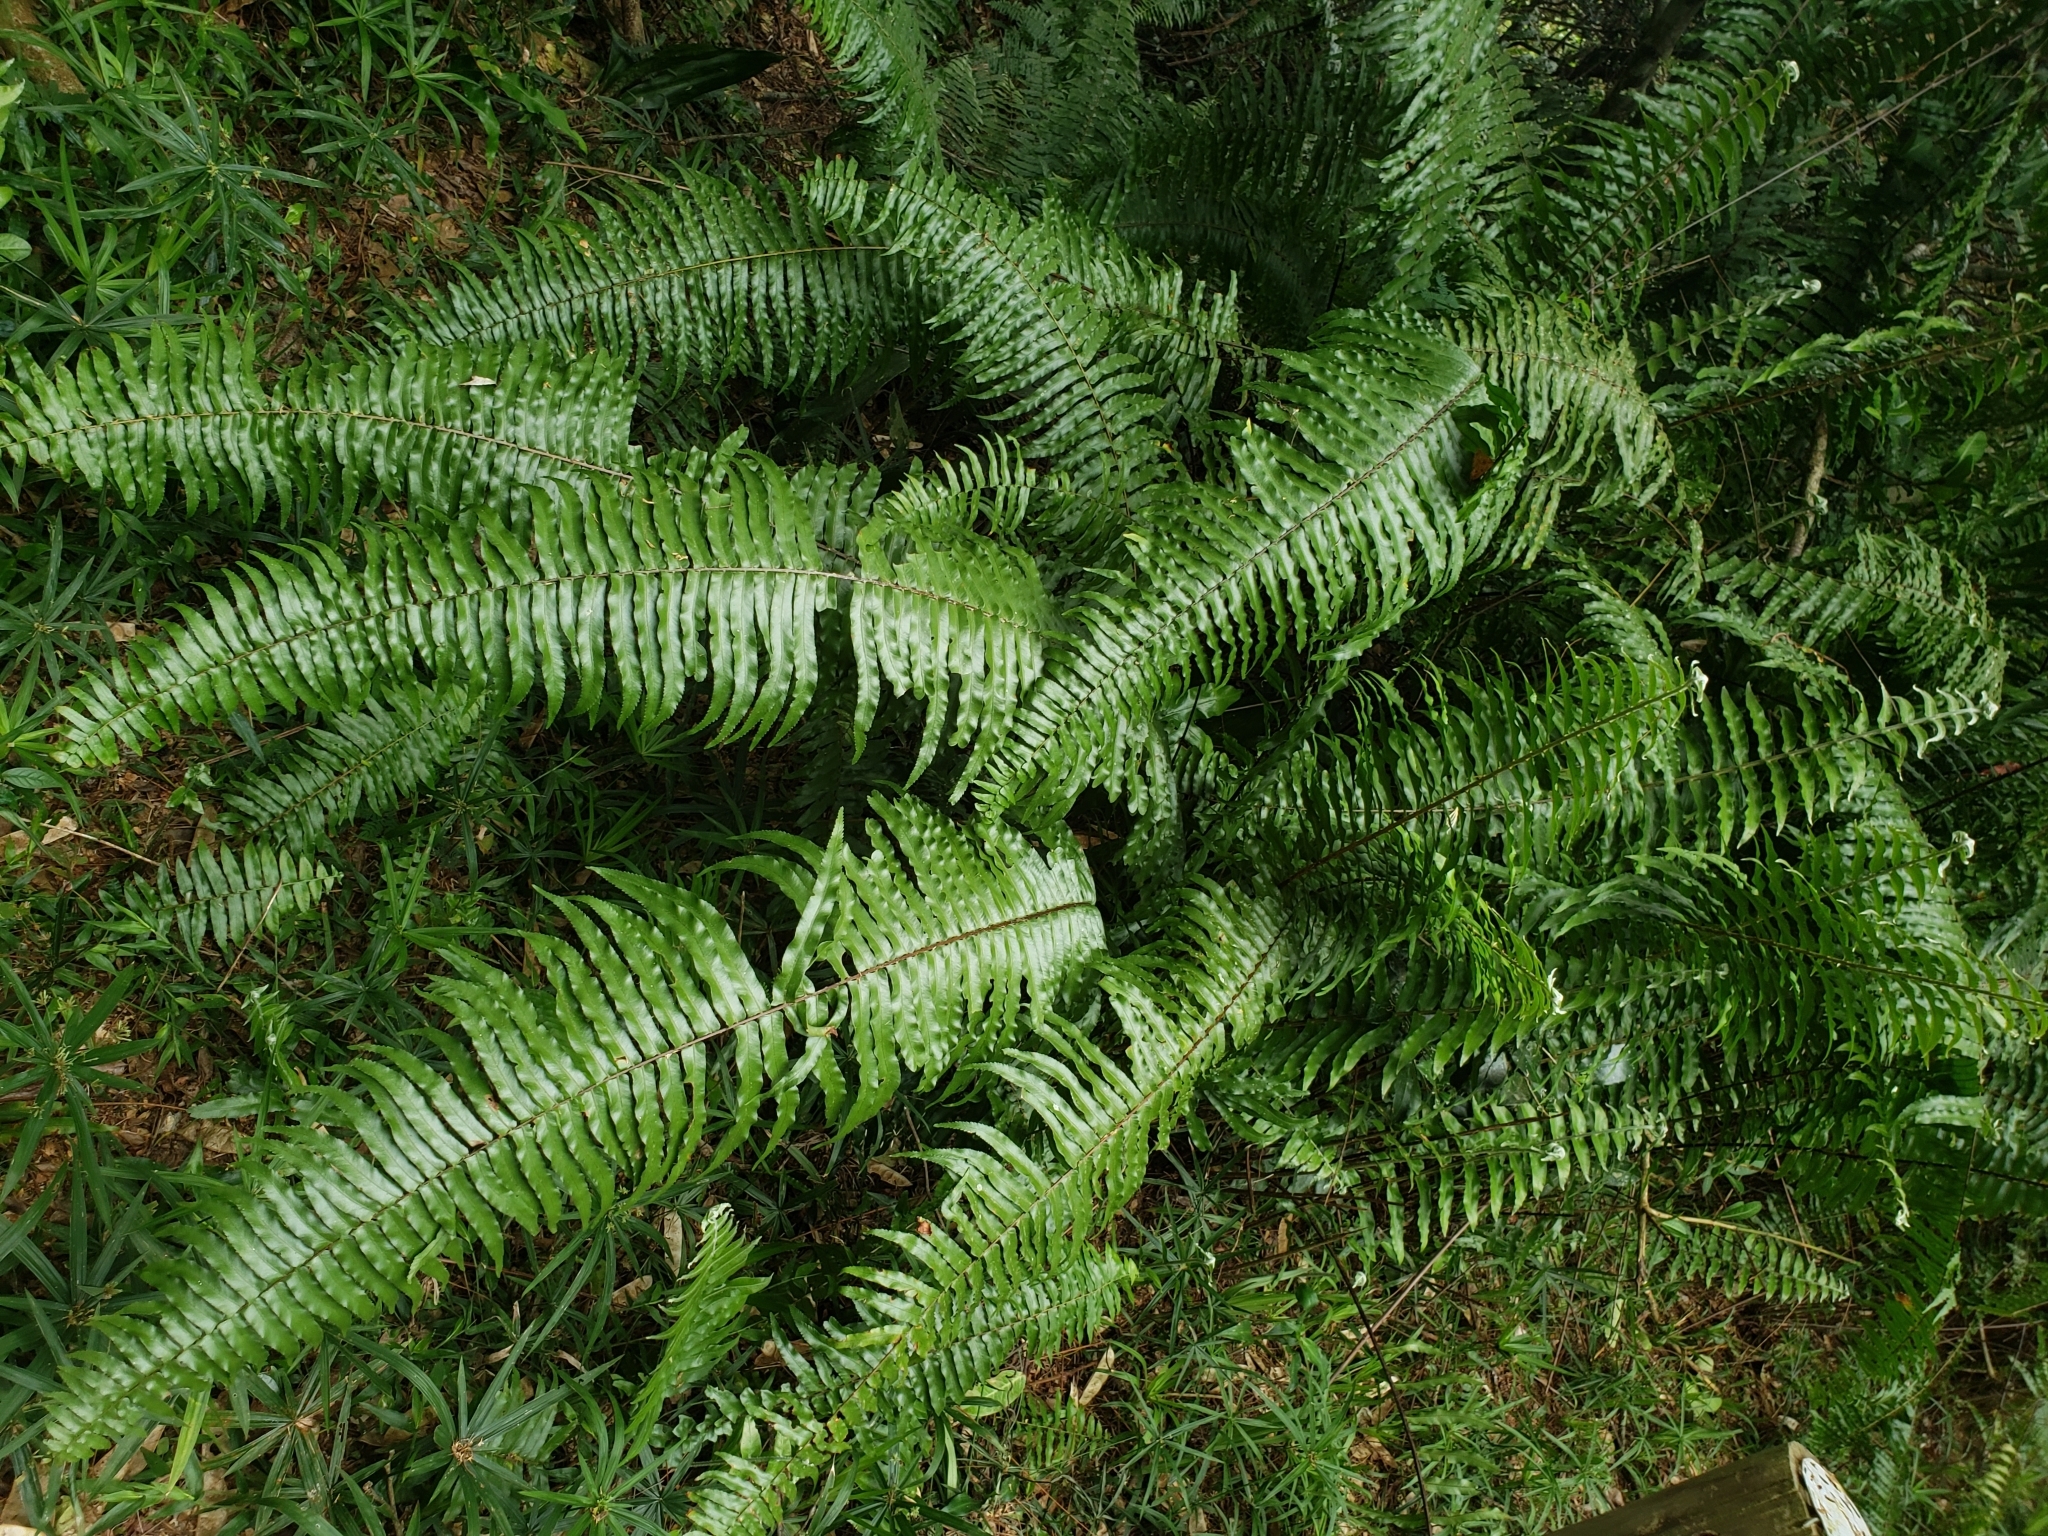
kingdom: Plantae
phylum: Tracheophyta
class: Polypodiopsida
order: Polypodiales
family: Nephrolepidaceae
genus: Nephrolepis
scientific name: Nephrolepis biserrata
